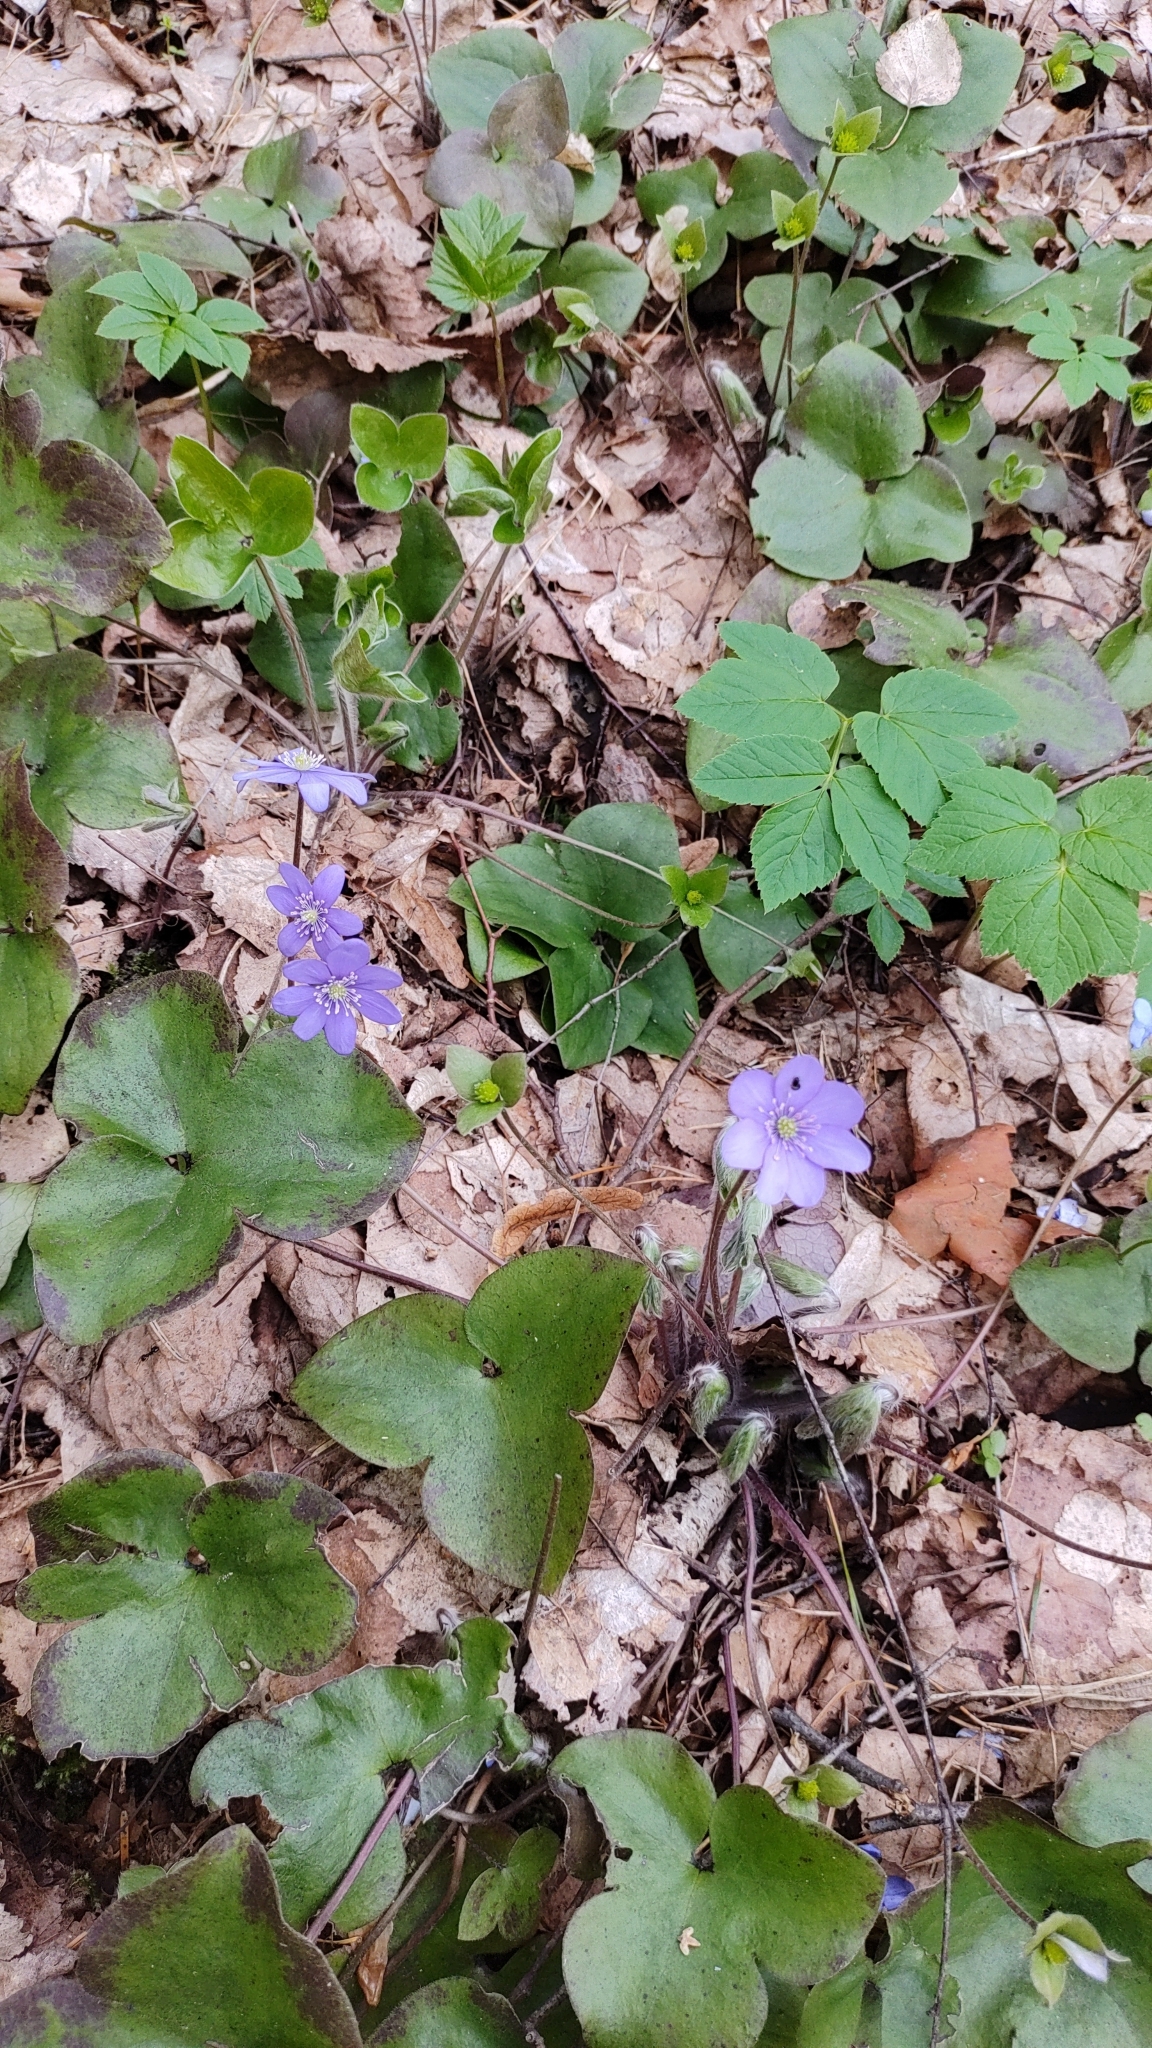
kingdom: Plantae
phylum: Tracheophyta
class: Magnoliopsida
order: Ranunculales
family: Ranunculaceae
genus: Hepatica
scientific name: Hepatica nobilis
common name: Liverleaf
